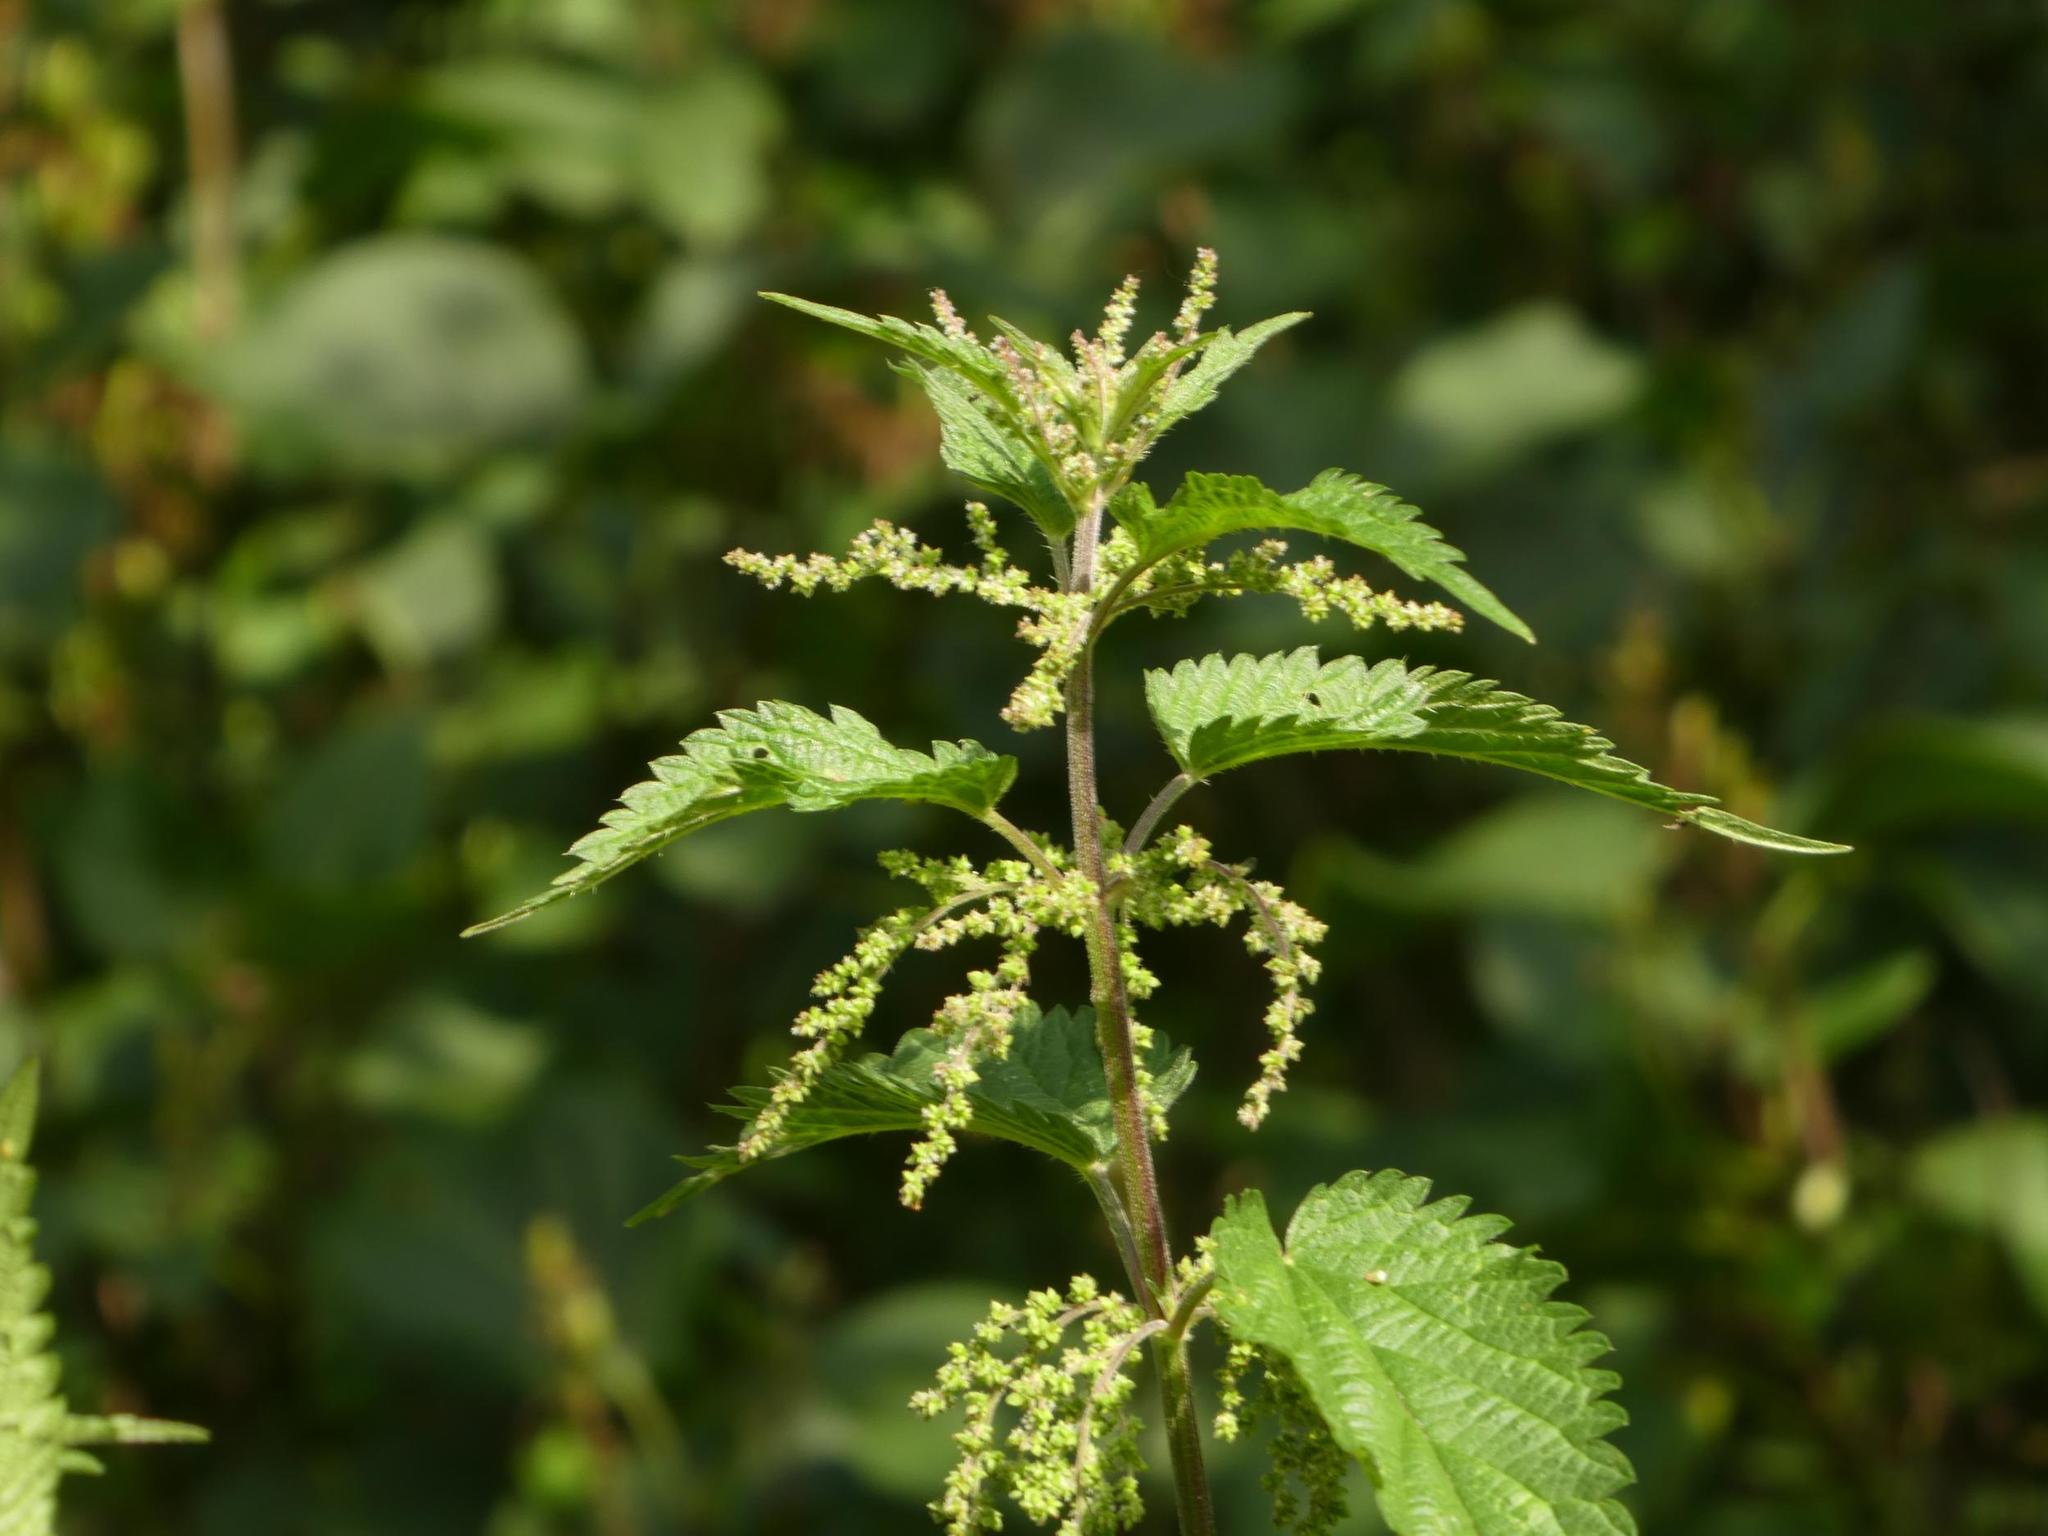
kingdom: Plantae
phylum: Tracheophyta
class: Magnoliopsida
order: Rosales
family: Urticaceae
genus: Urtica
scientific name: Urtica dioica
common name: Common nettle
